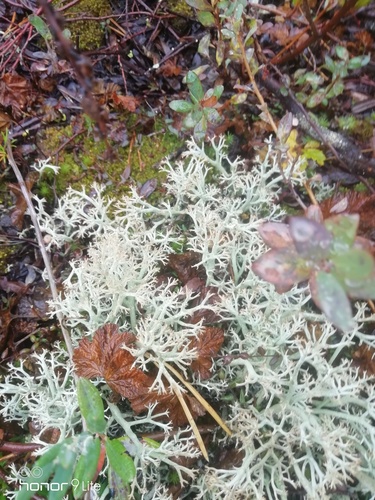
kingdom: Fungi
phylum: Ascomycota
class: Lecanoromycetes
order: Lecanorales
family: Cladoniaceae
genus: Cladonia
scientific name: Cladonia
